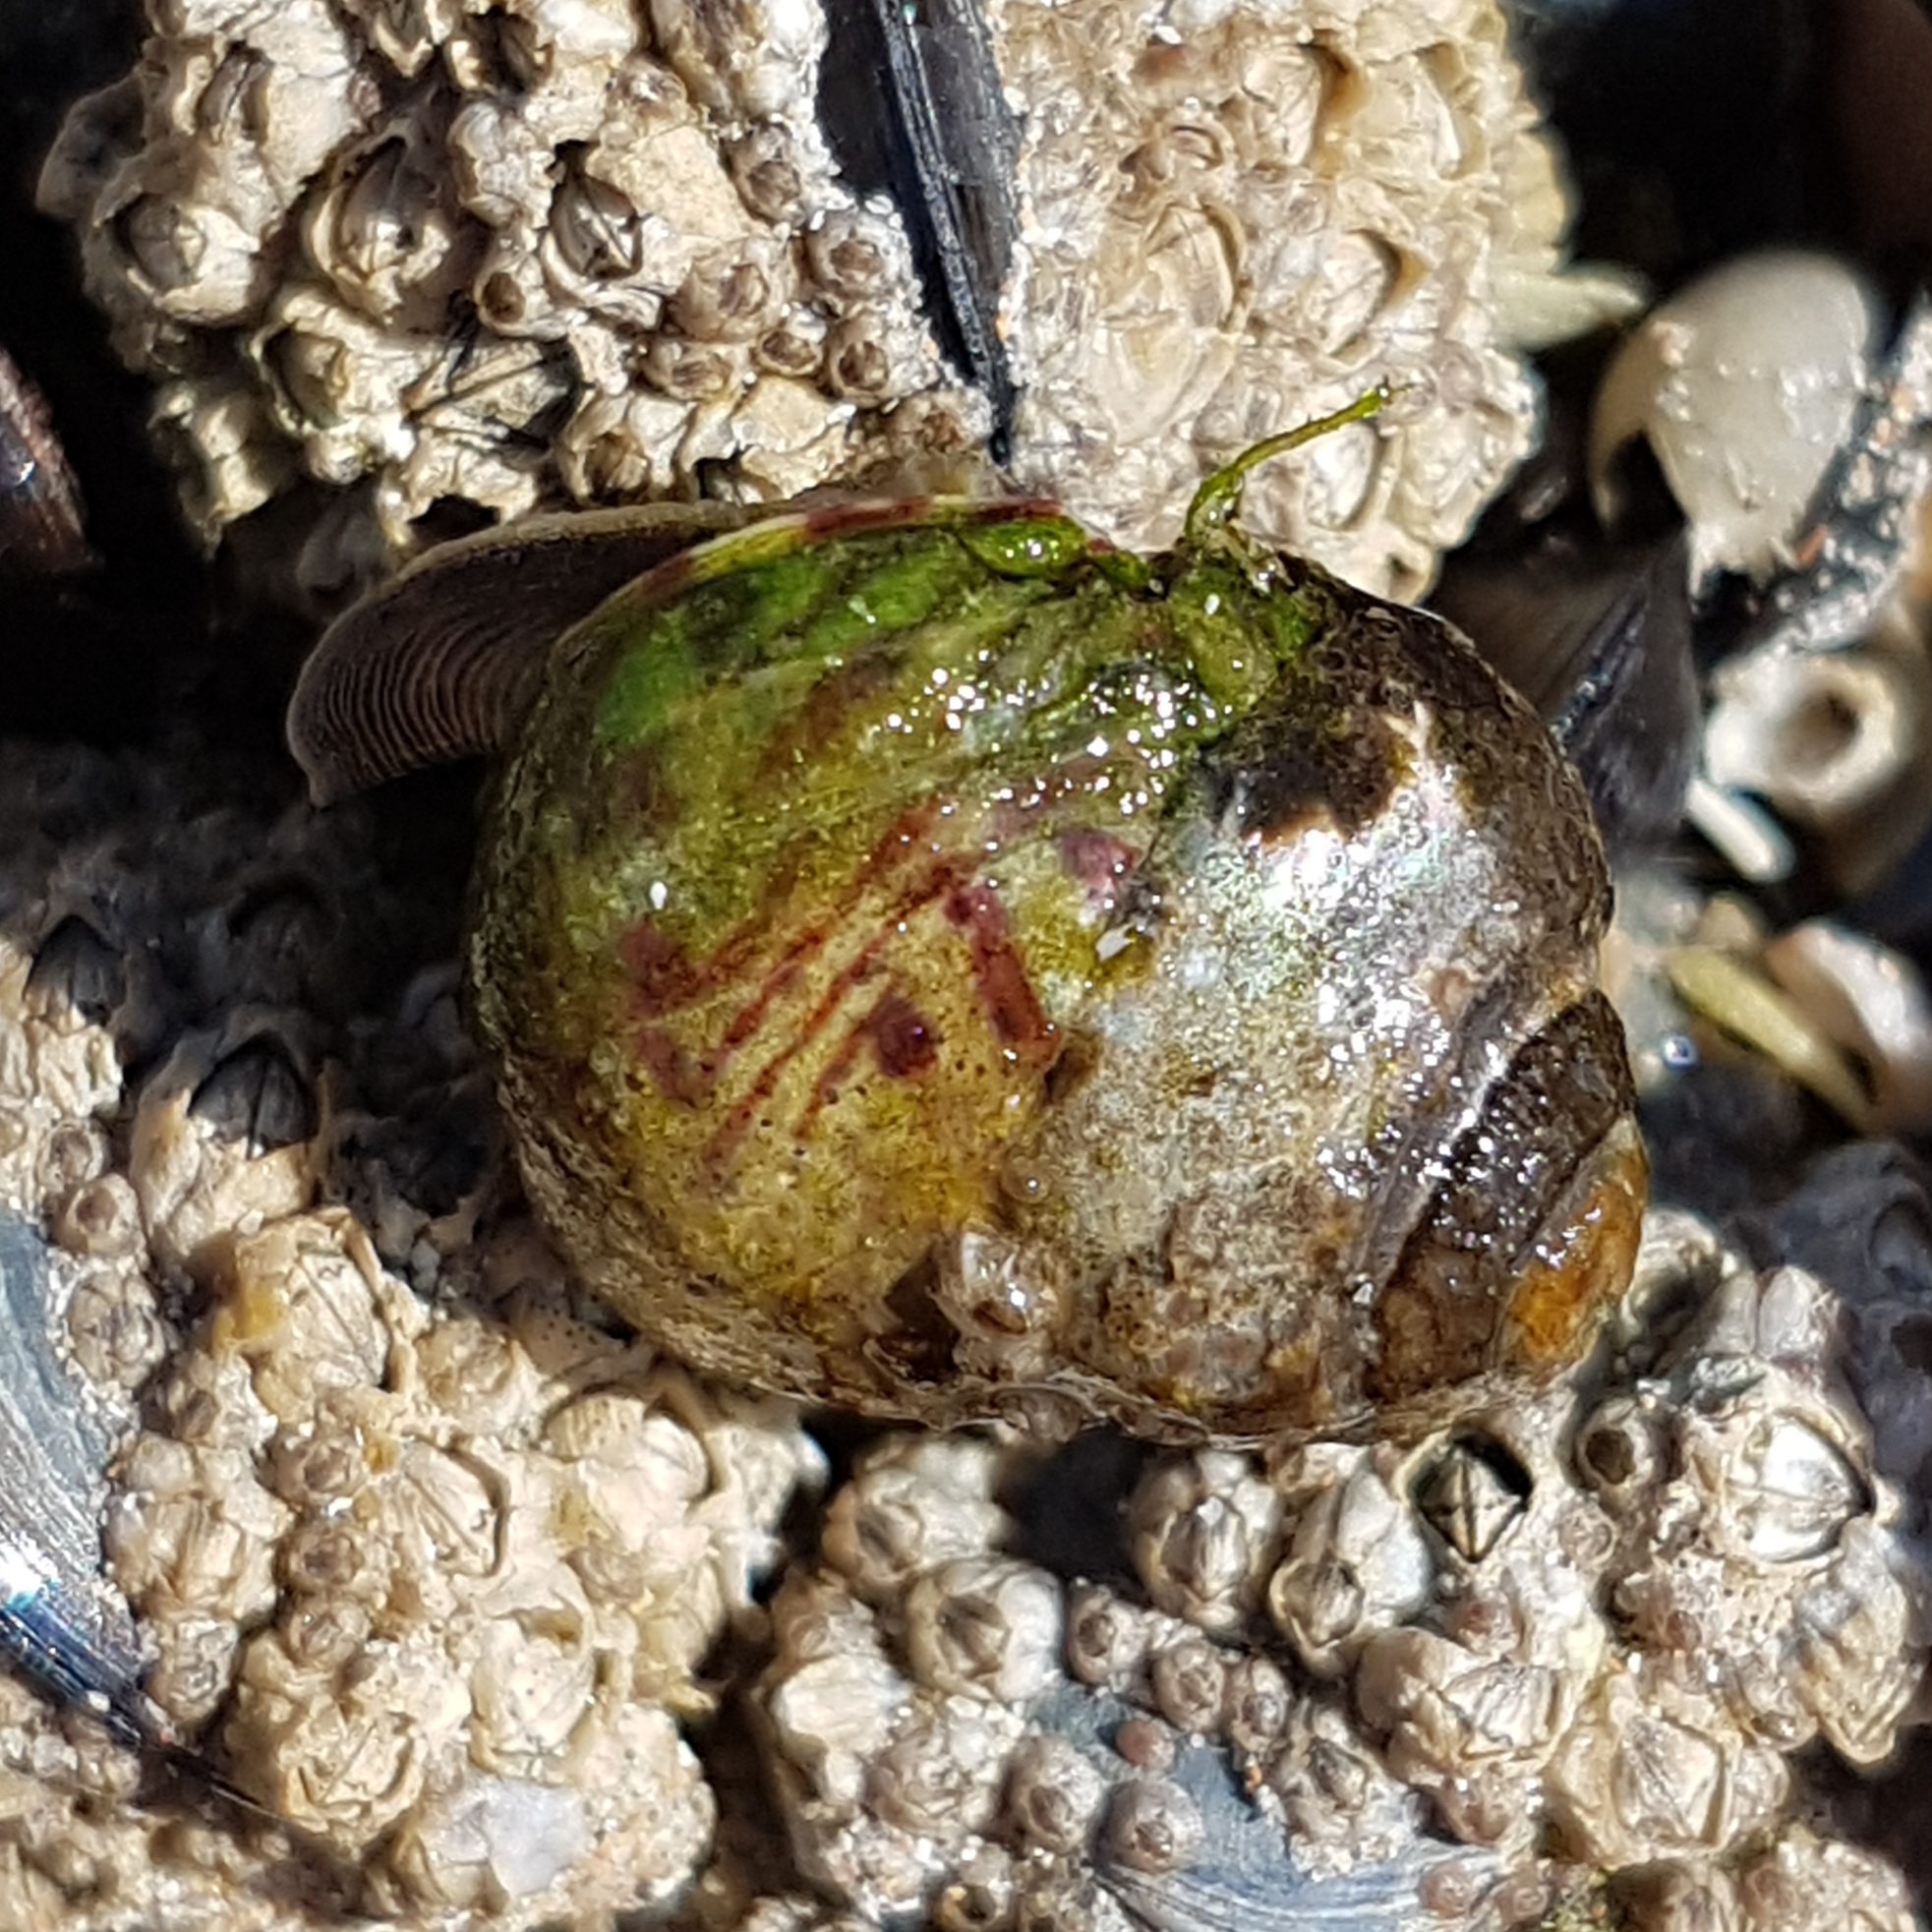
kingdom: Animalia
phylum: Mollusca
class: Gastropoda
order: Trochida
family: Trochidae
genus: Phorcus
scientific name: Phorcus lineatus
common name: Toothed top shell
